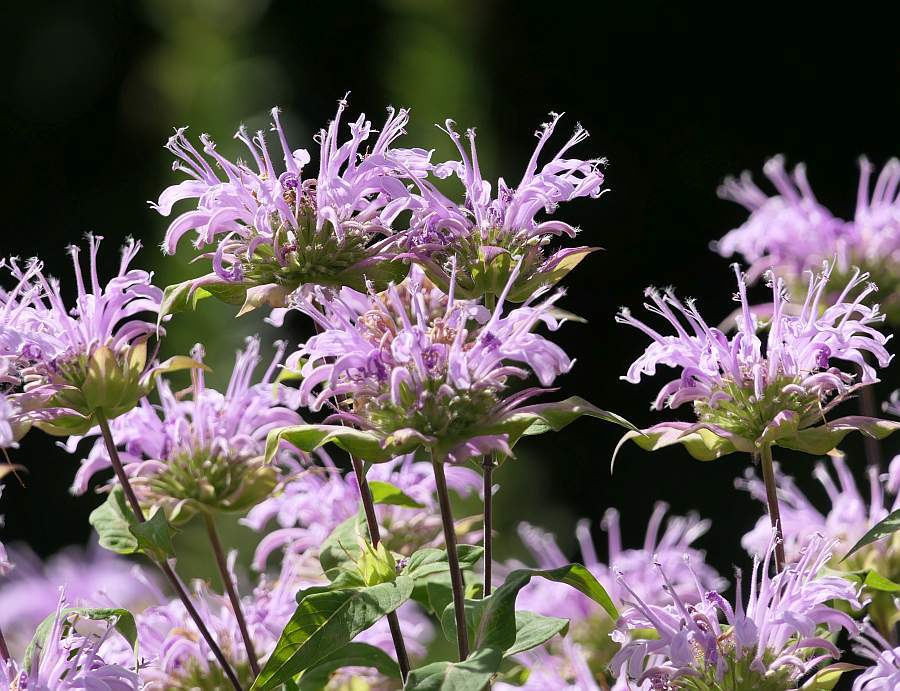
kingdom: Plantae
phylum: Tracheophyta
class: Magnoliopsida
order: Lamiales
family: Lamiaceae
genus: Monarda
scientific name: Monarda fistulosa
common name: Purple beebalm
